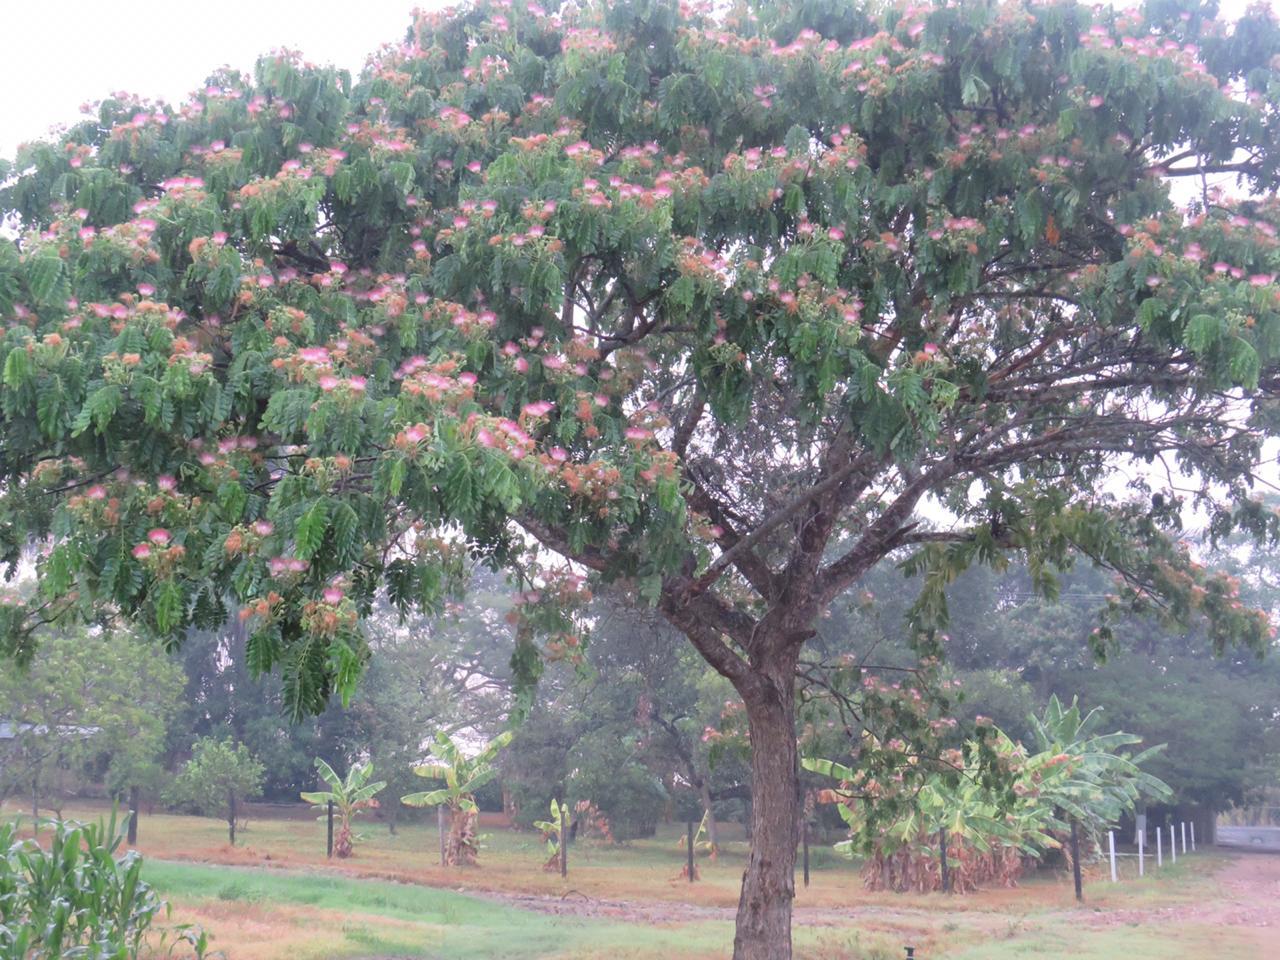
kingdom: Plantae
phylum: Tracheophyta
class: Magnoliopsida
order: Fabales
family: Fabaceae
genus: Samanea
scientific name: Samanea saman
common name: Raintree
